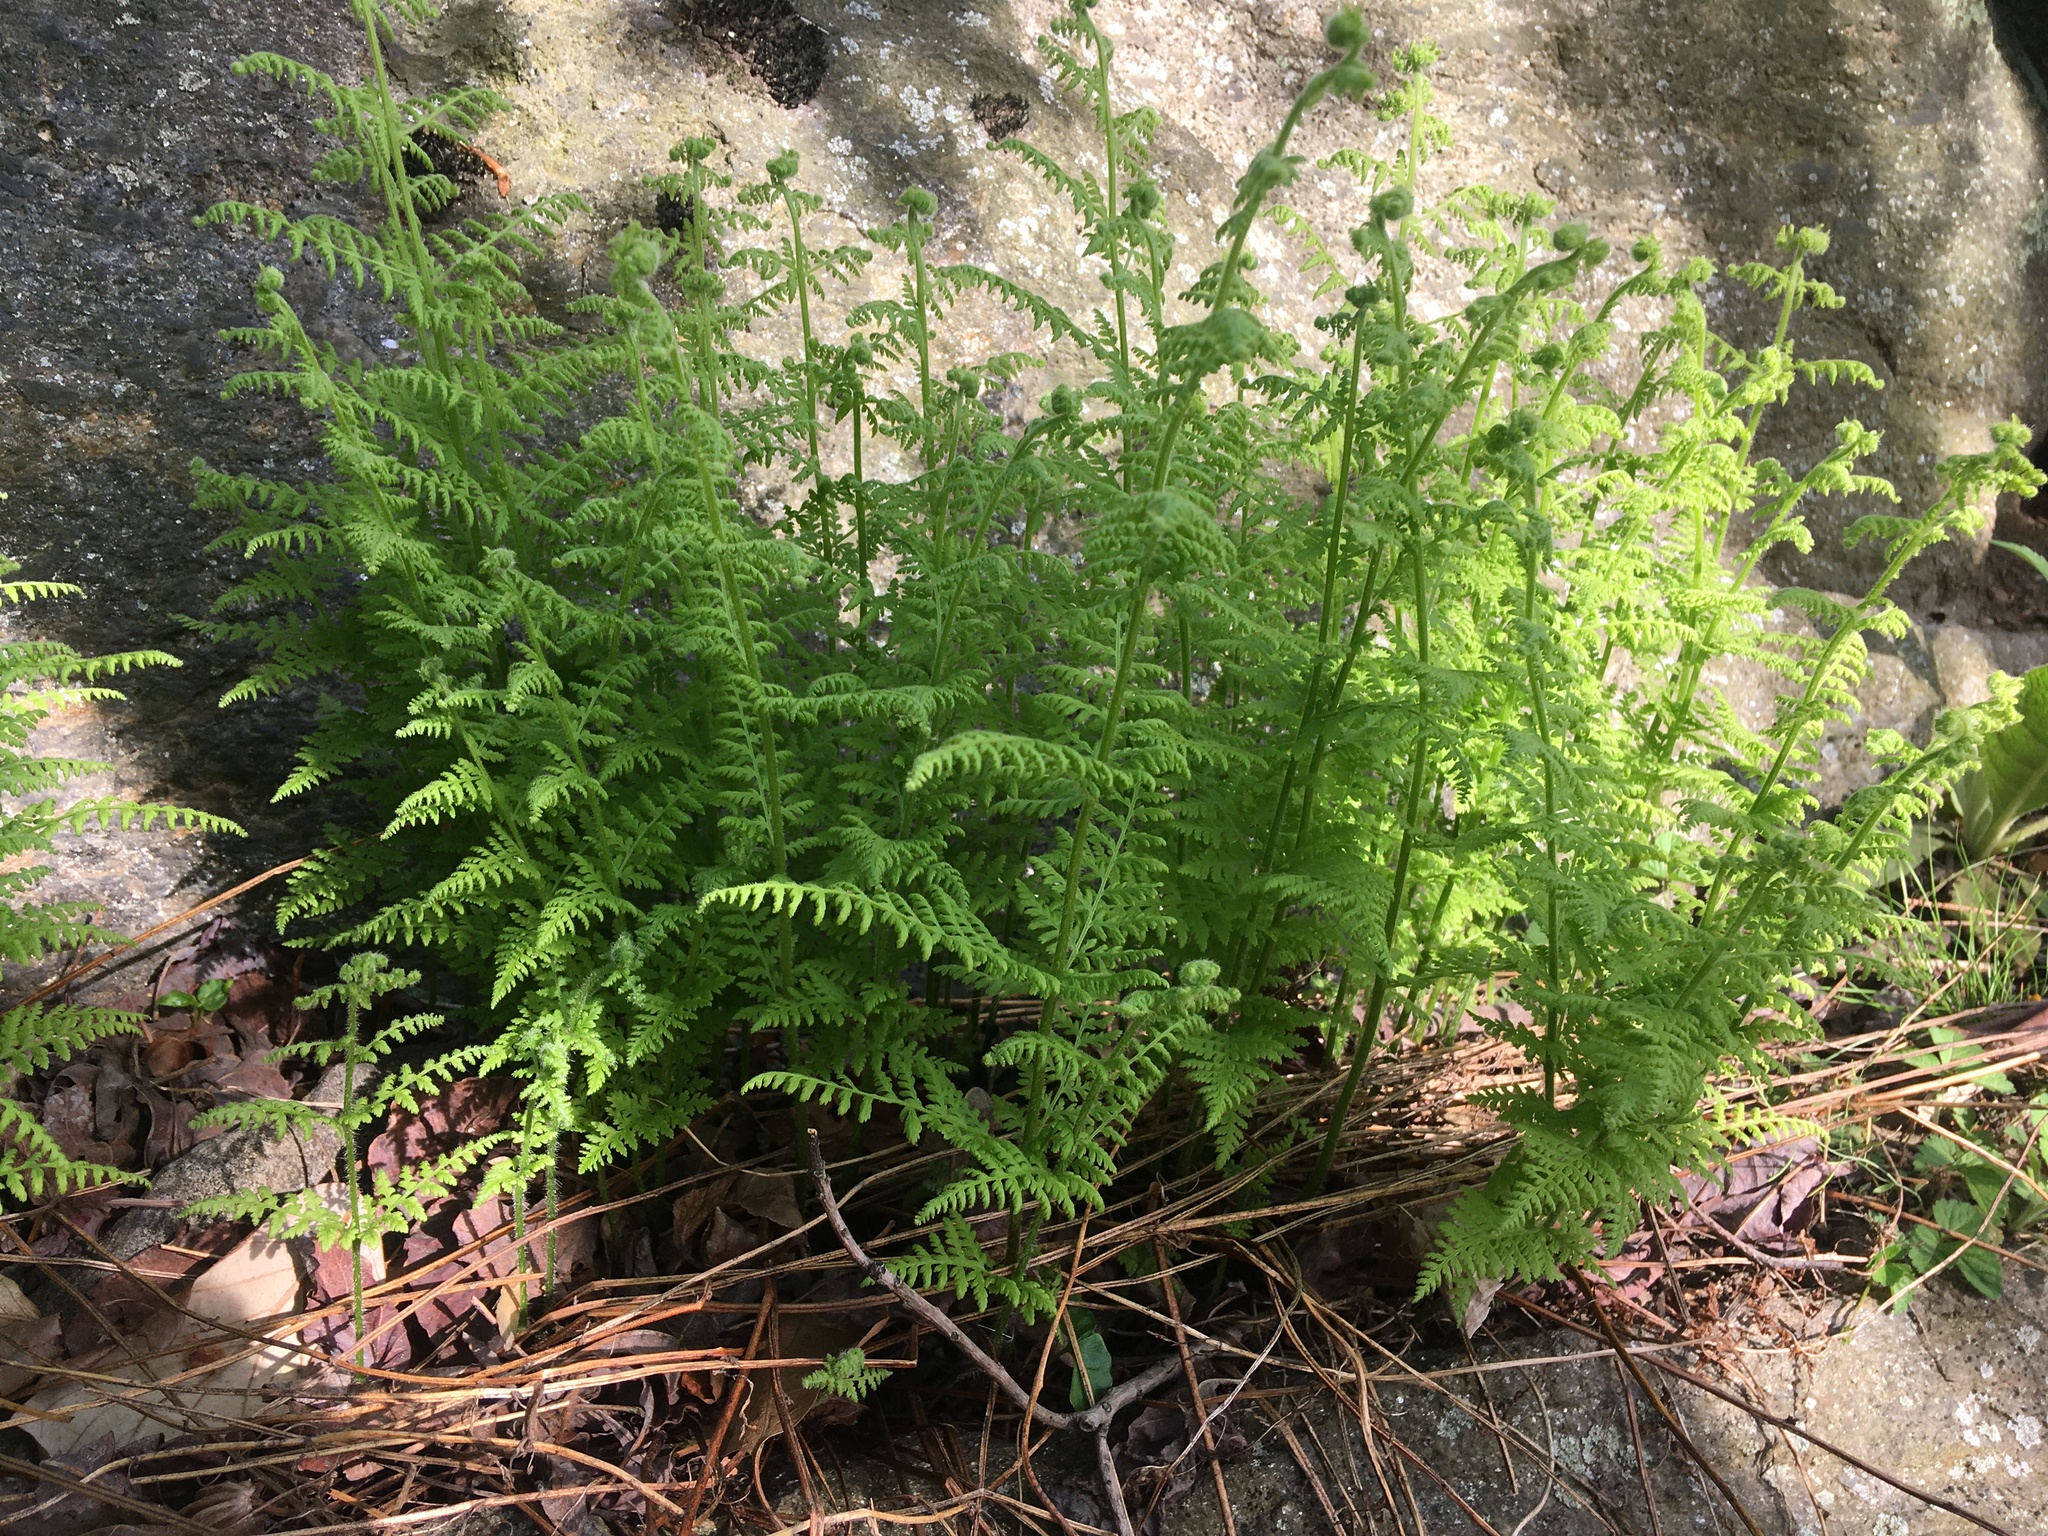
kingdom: Plantae
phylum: Tracheophyta
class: Polypodiopsida
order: Polypodiales
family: Dennstaedtiaceae
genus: Sitobolium
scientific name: Sitobolium punctilobum
